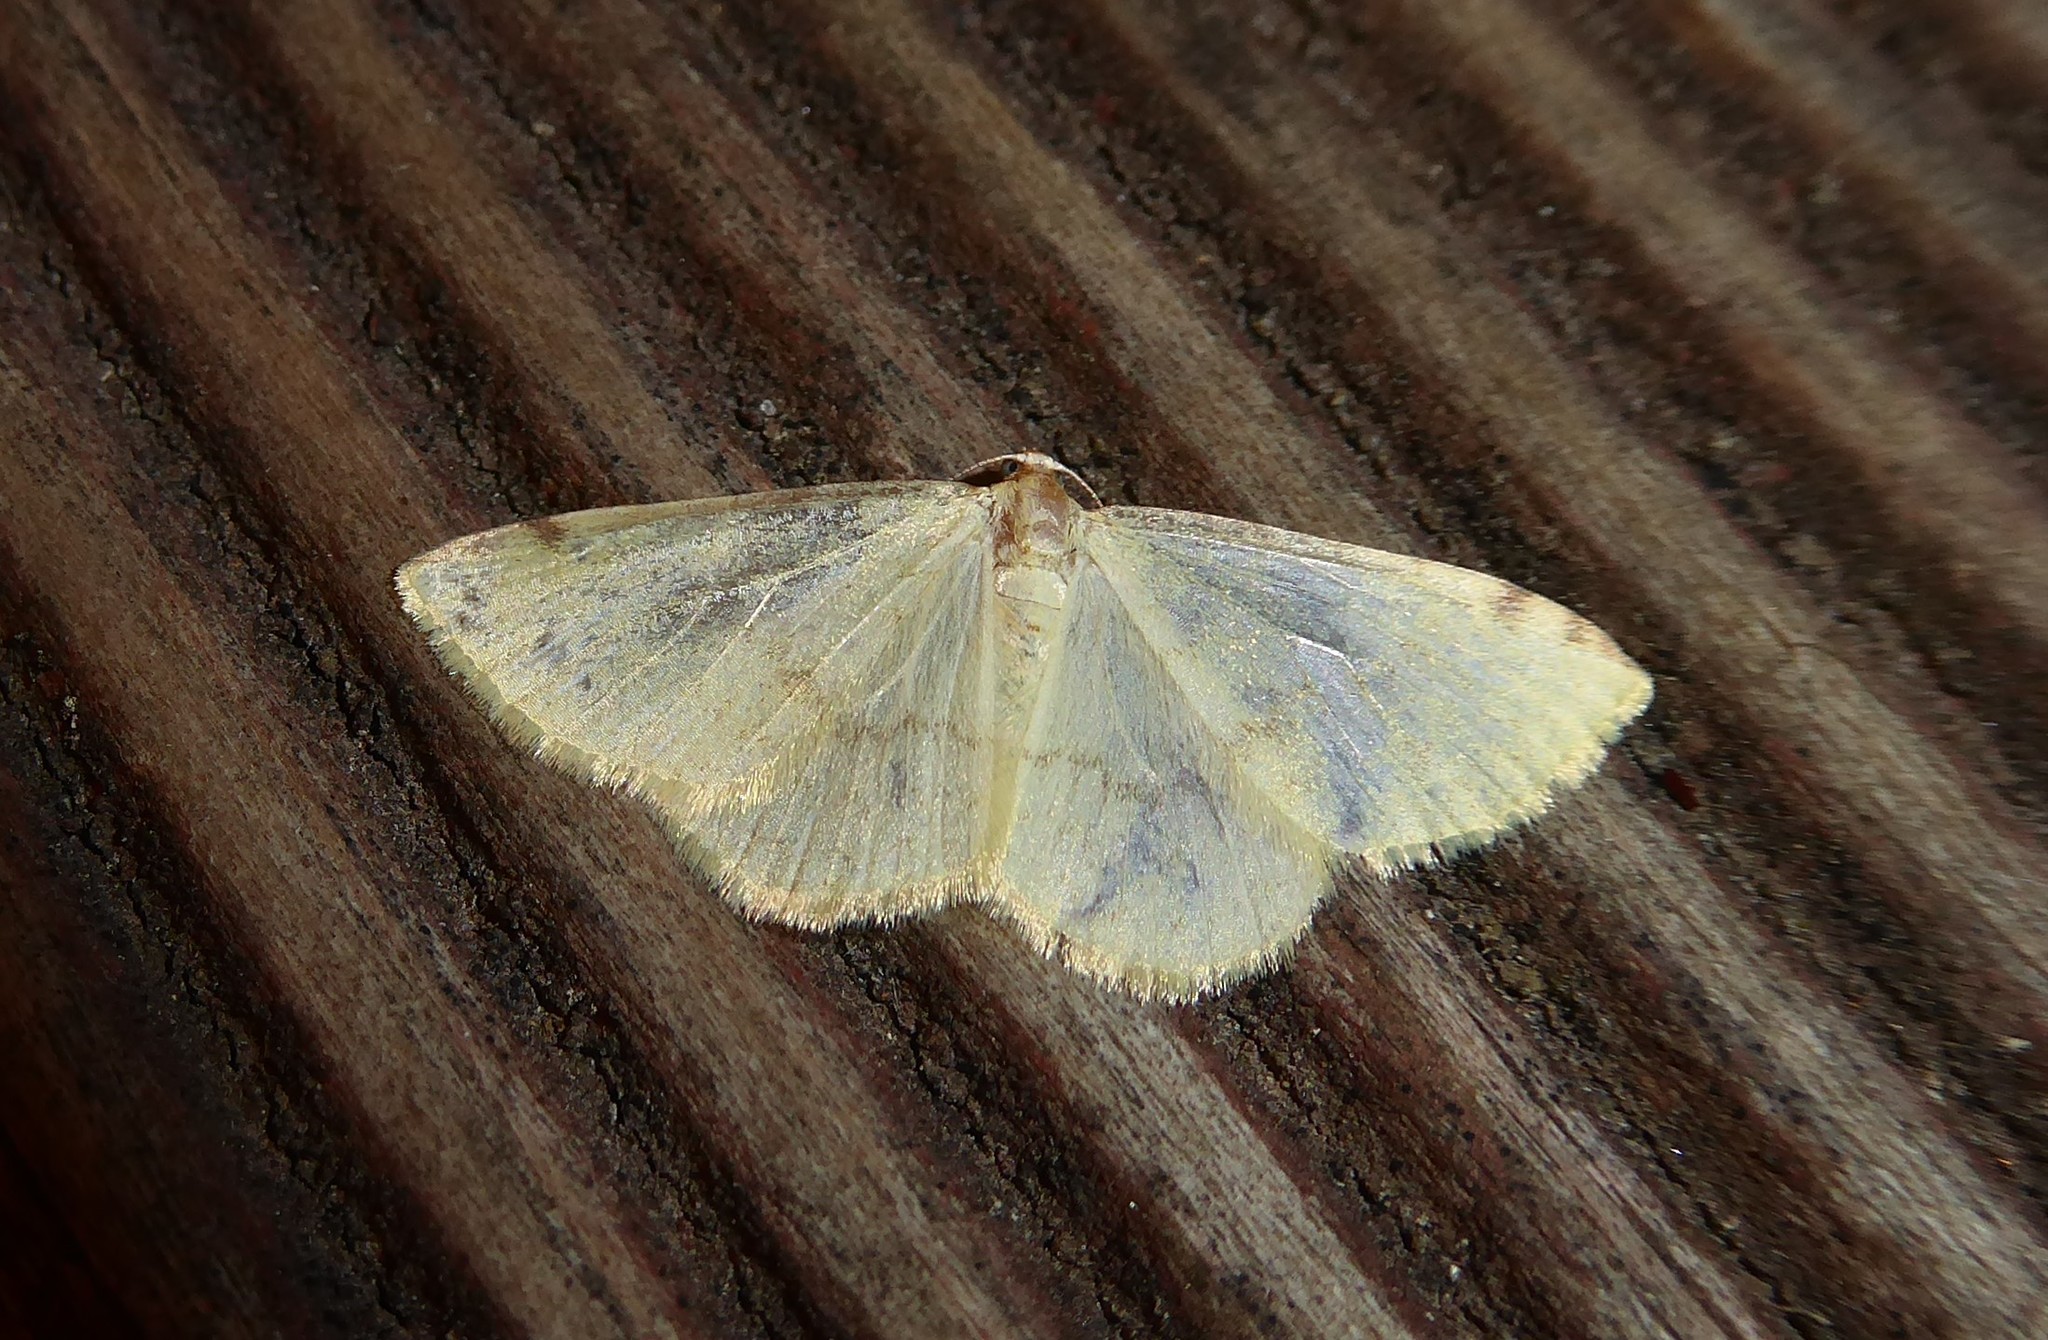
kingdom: Animalia
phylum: Arthropoda
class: Insecta
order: Lepidoptera
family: Geometridae
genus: Epiphryne
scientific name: Epiphryne undosata
